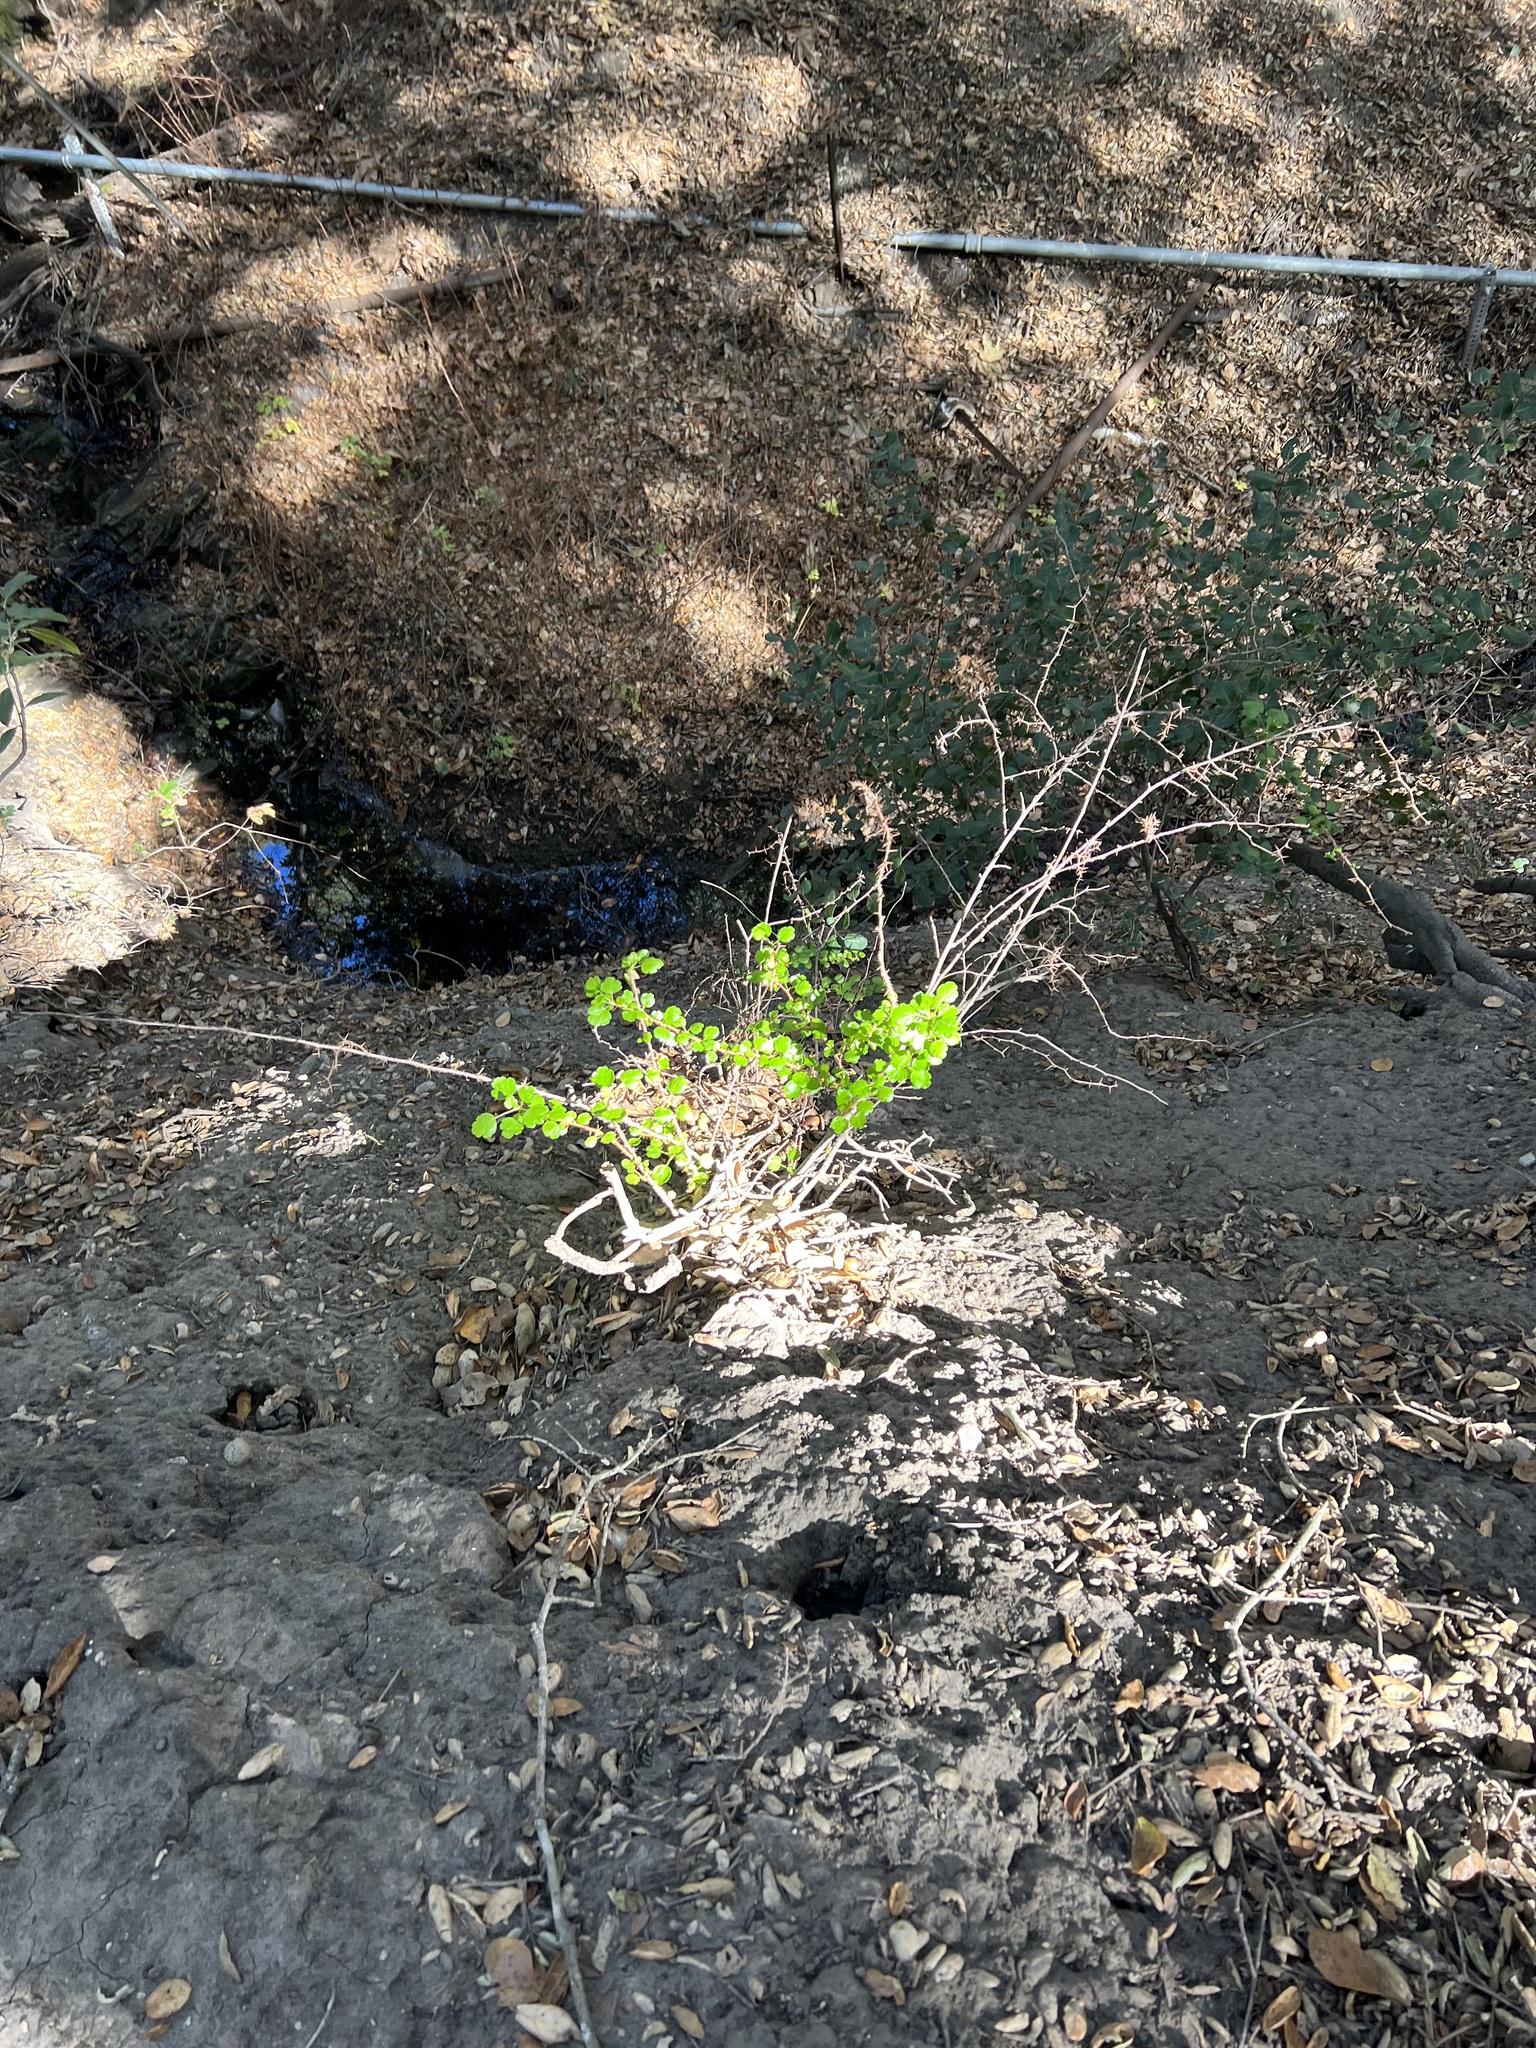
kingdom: Plantae
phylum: Tracheophyta
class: Magnoliopsida
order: Saxifragales
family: Grossulariaceae
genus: Ribes
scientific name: Ribes speciosum
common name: Fuchsia-flower gooseberry
